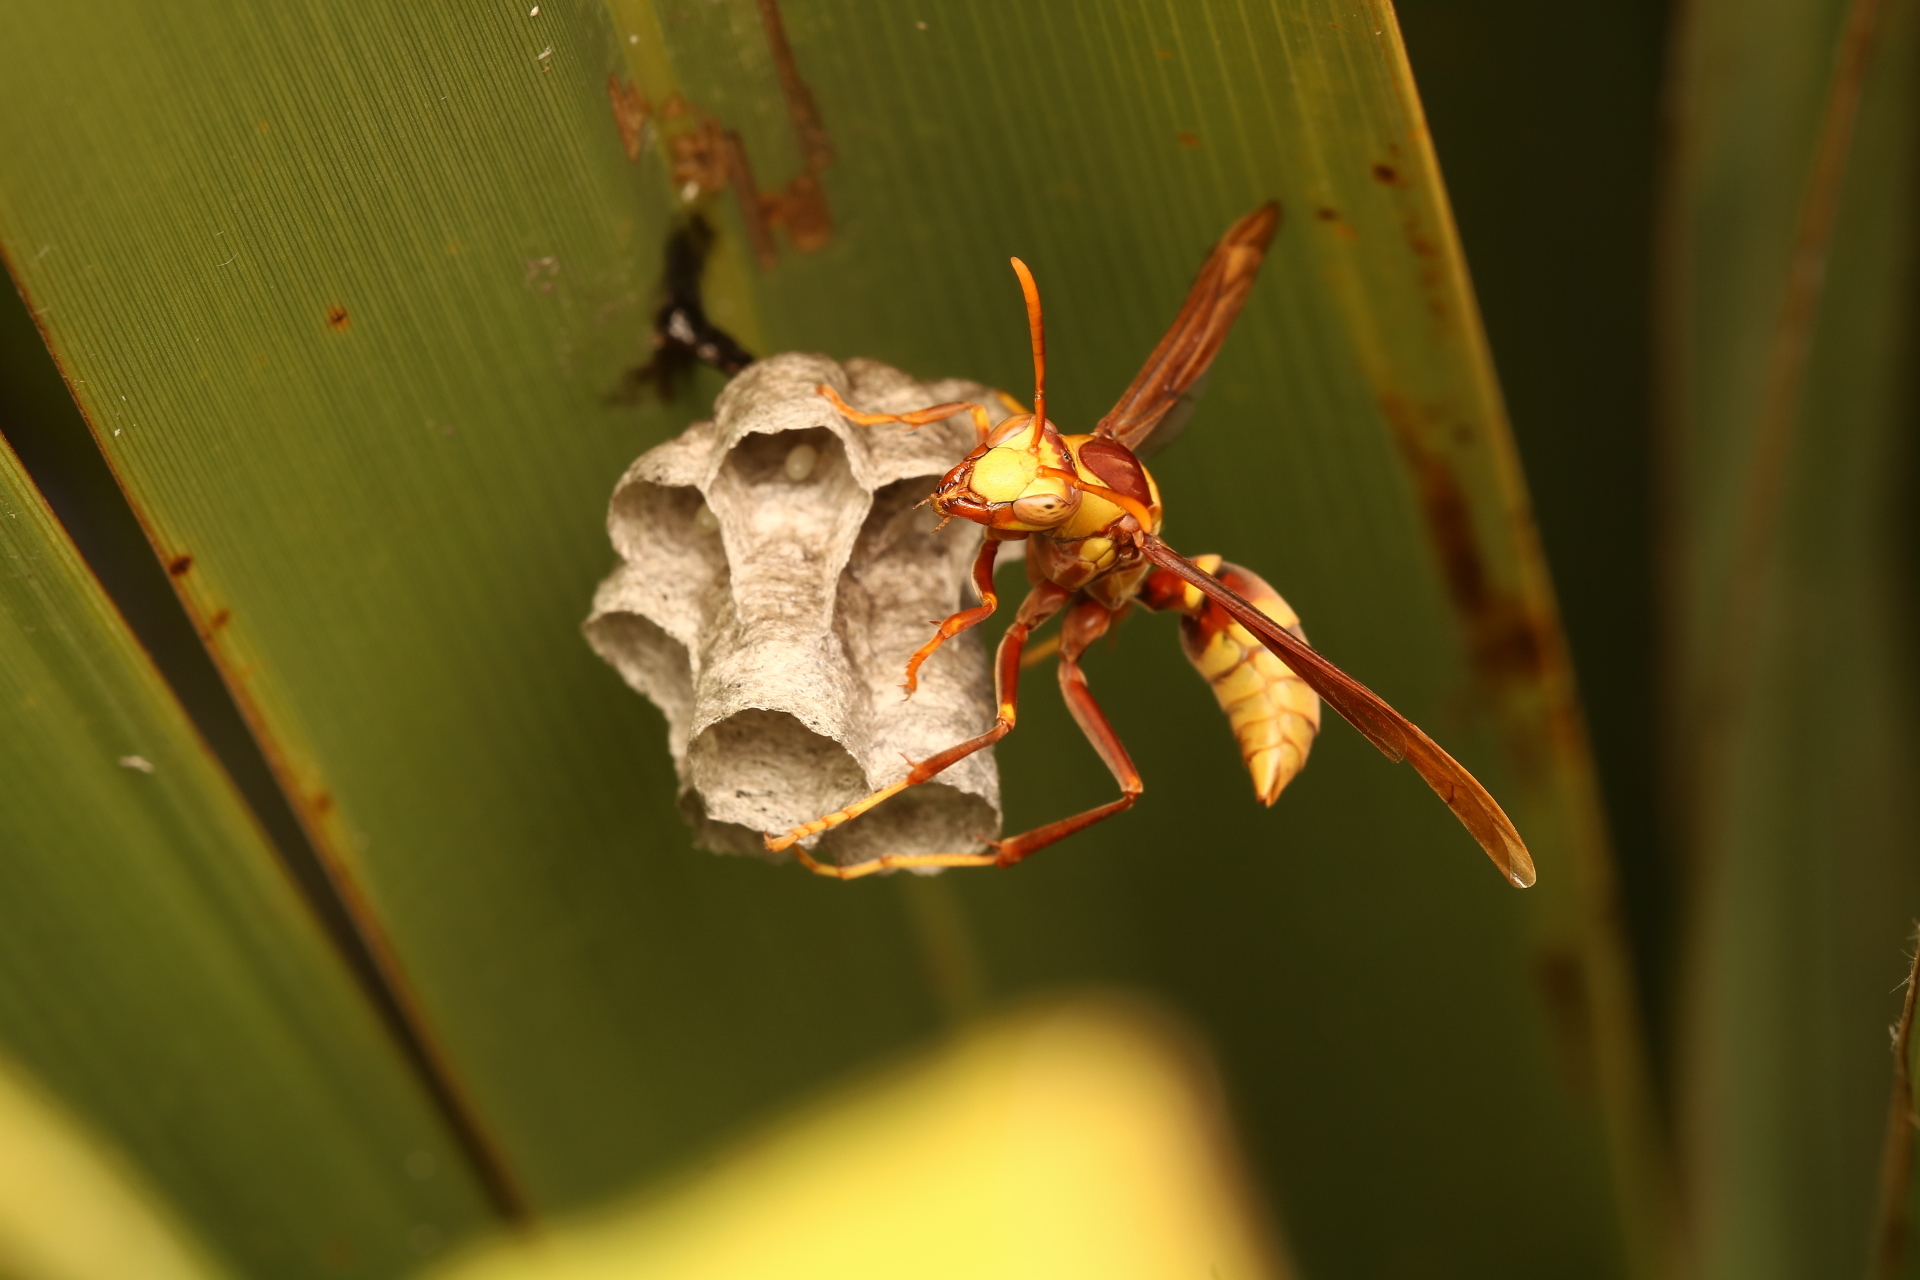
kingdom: Animalia
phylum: Arthropoda
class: Insecta
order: Hymenoptera
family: Eumenidae
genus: Polistes
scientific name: Polistes major
